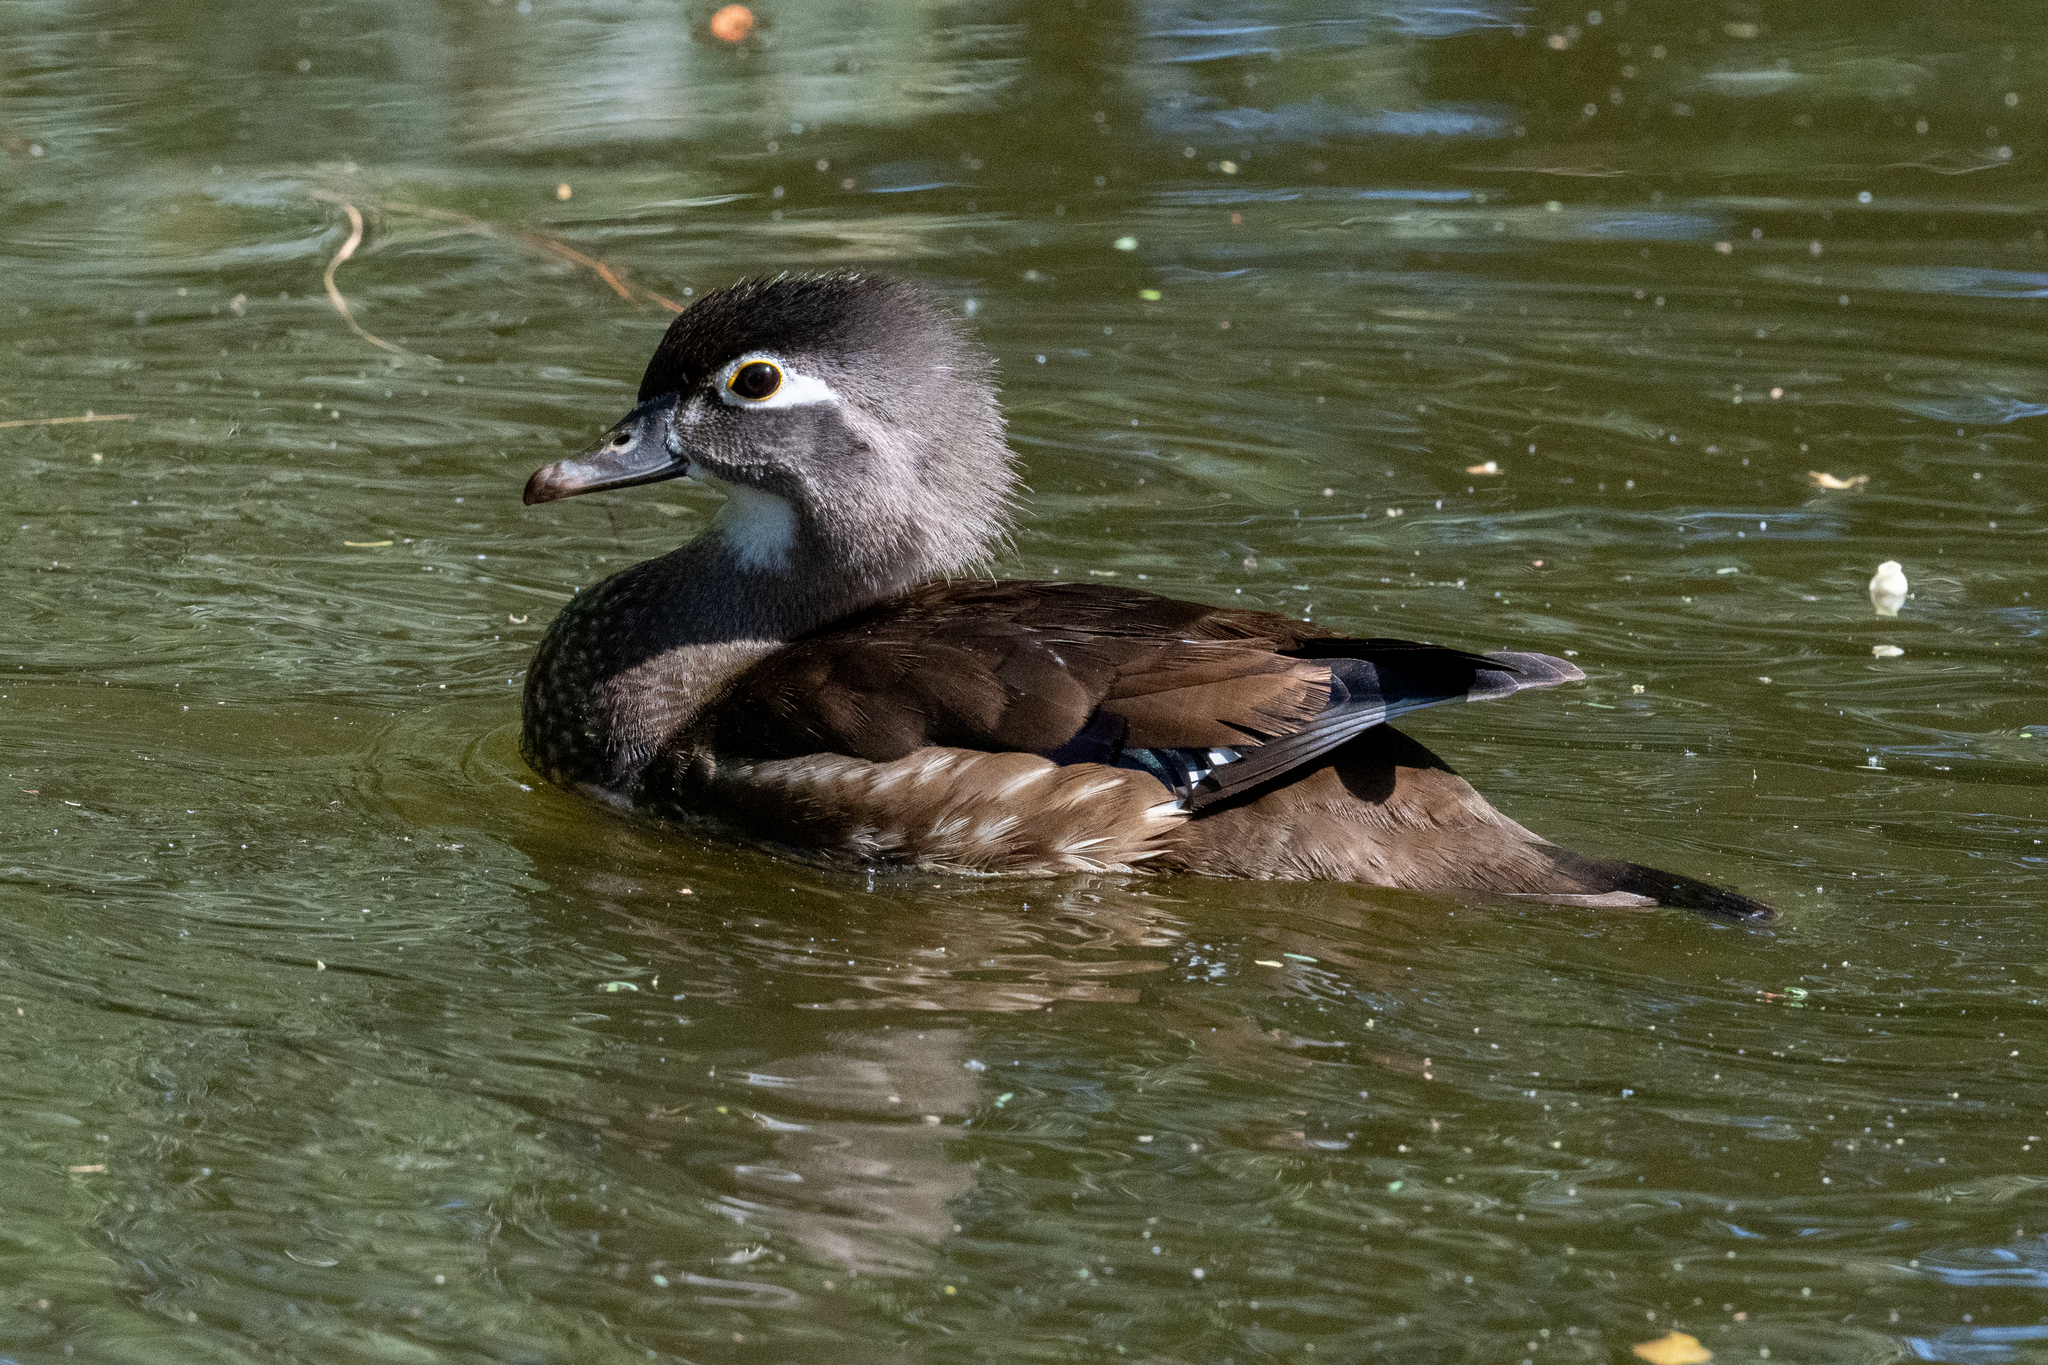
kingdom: Animalia
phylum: Chordata
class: Aves
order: Anseriformes
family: Anatidae
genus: Aix
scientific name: Aix sponsa
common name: Wood duck
